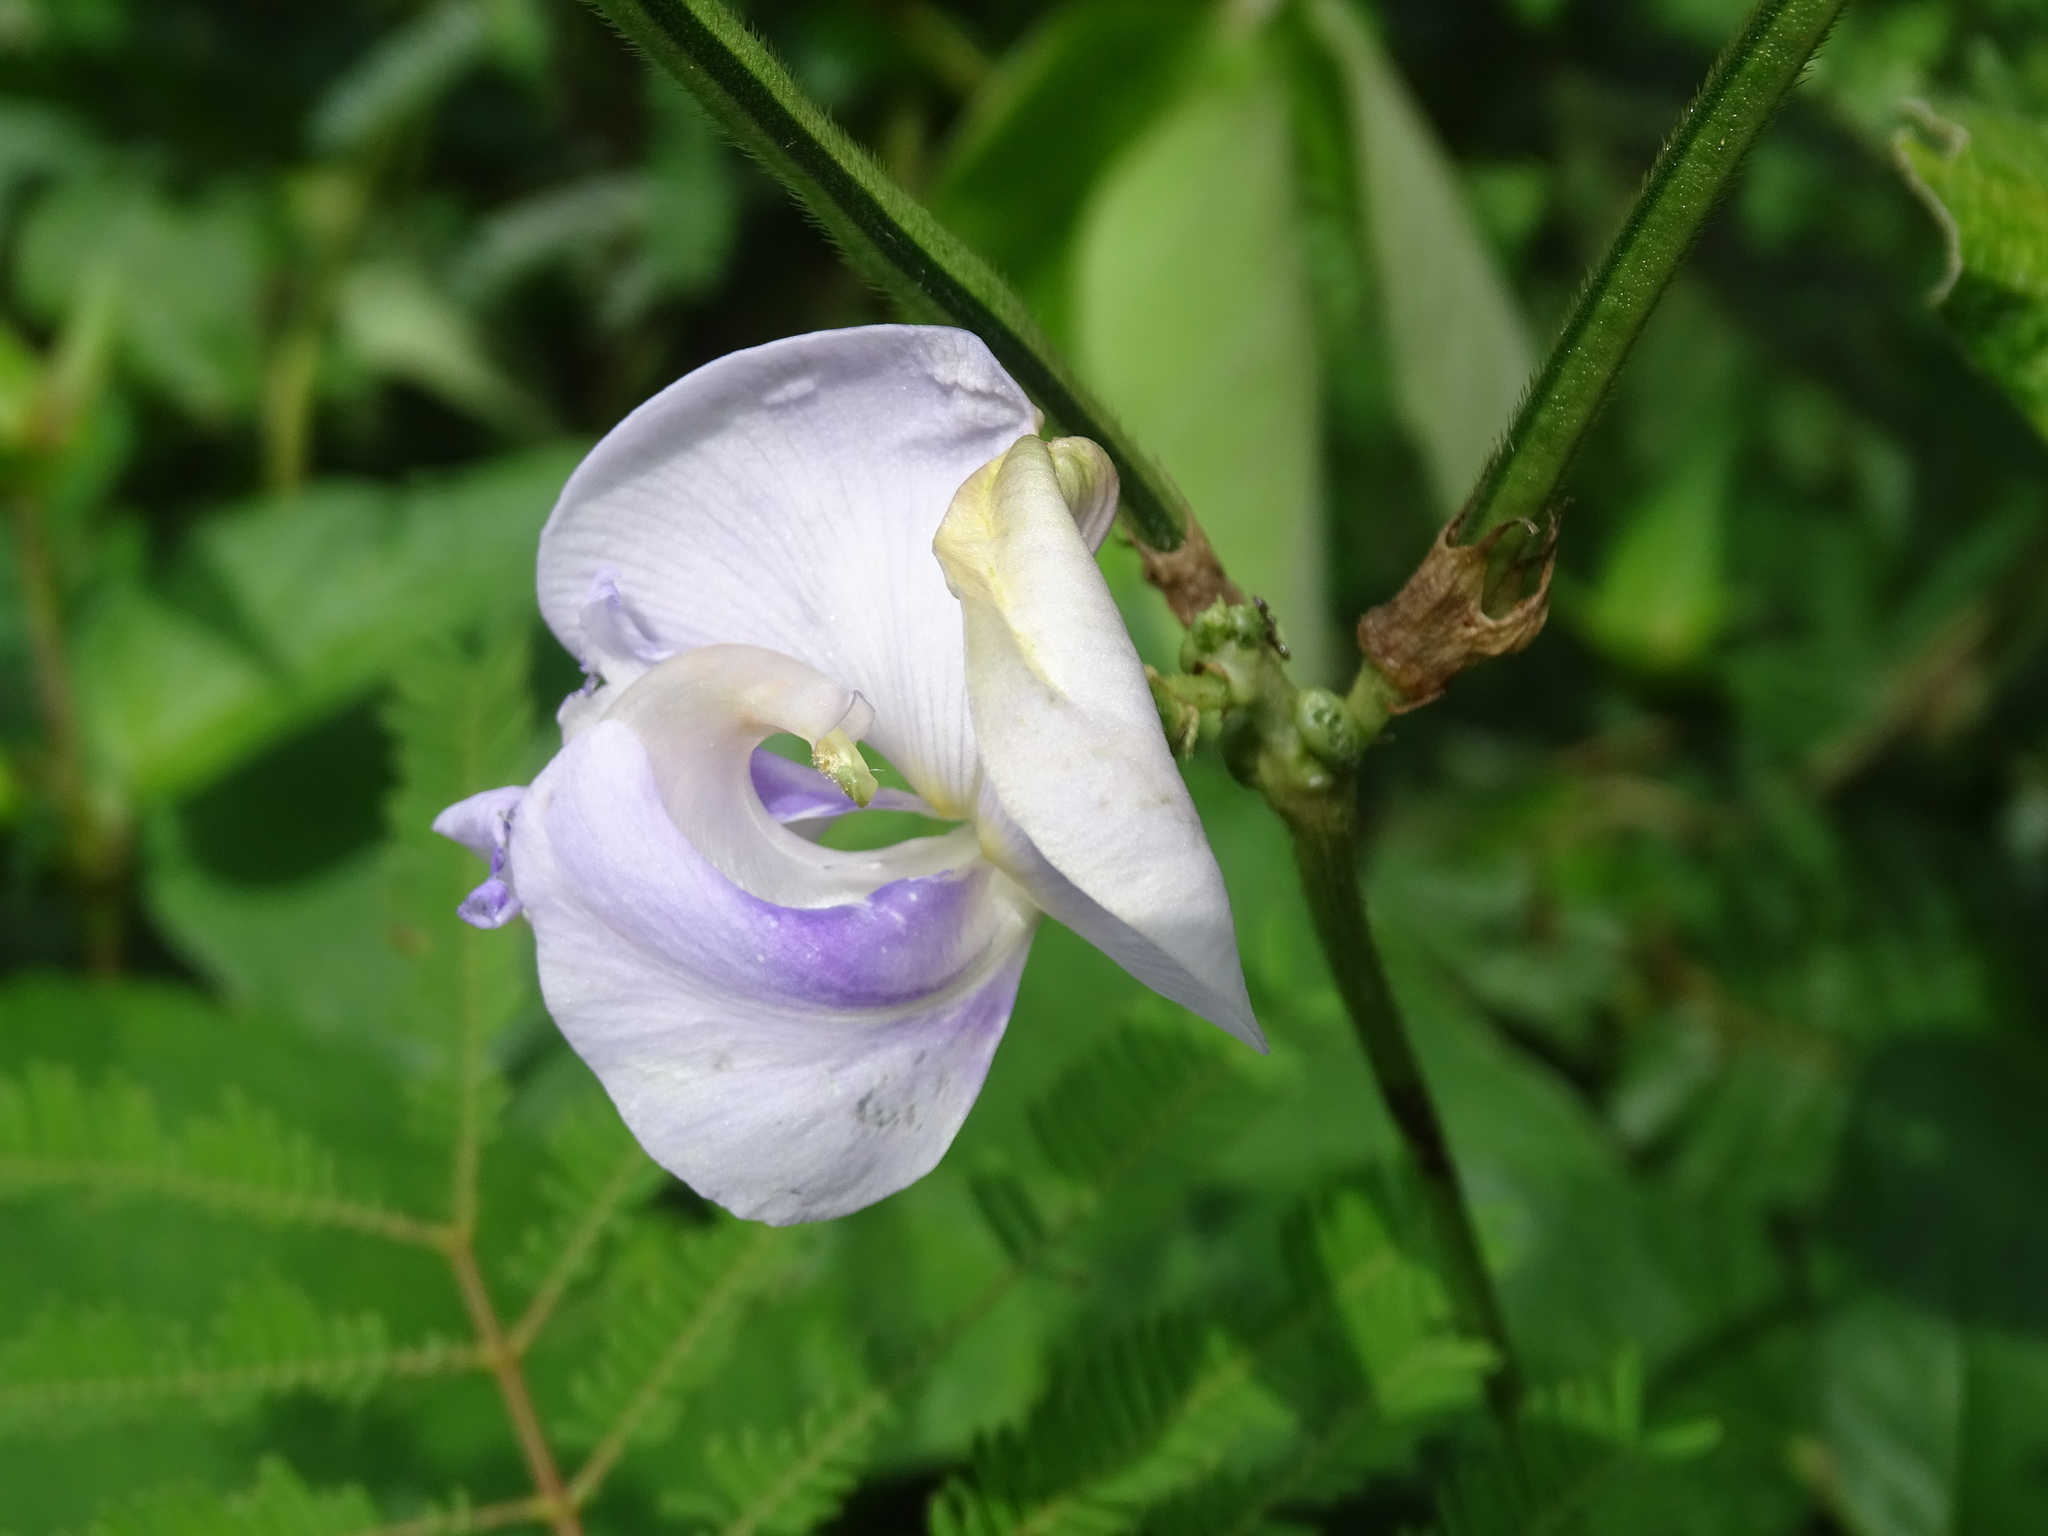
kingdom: Plantae
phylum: Tracheophyta
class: Magnoliopsida
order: Fabales
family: Fabaceae
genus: Vigna
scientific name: Vigna vexillata
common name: Zombi pea
